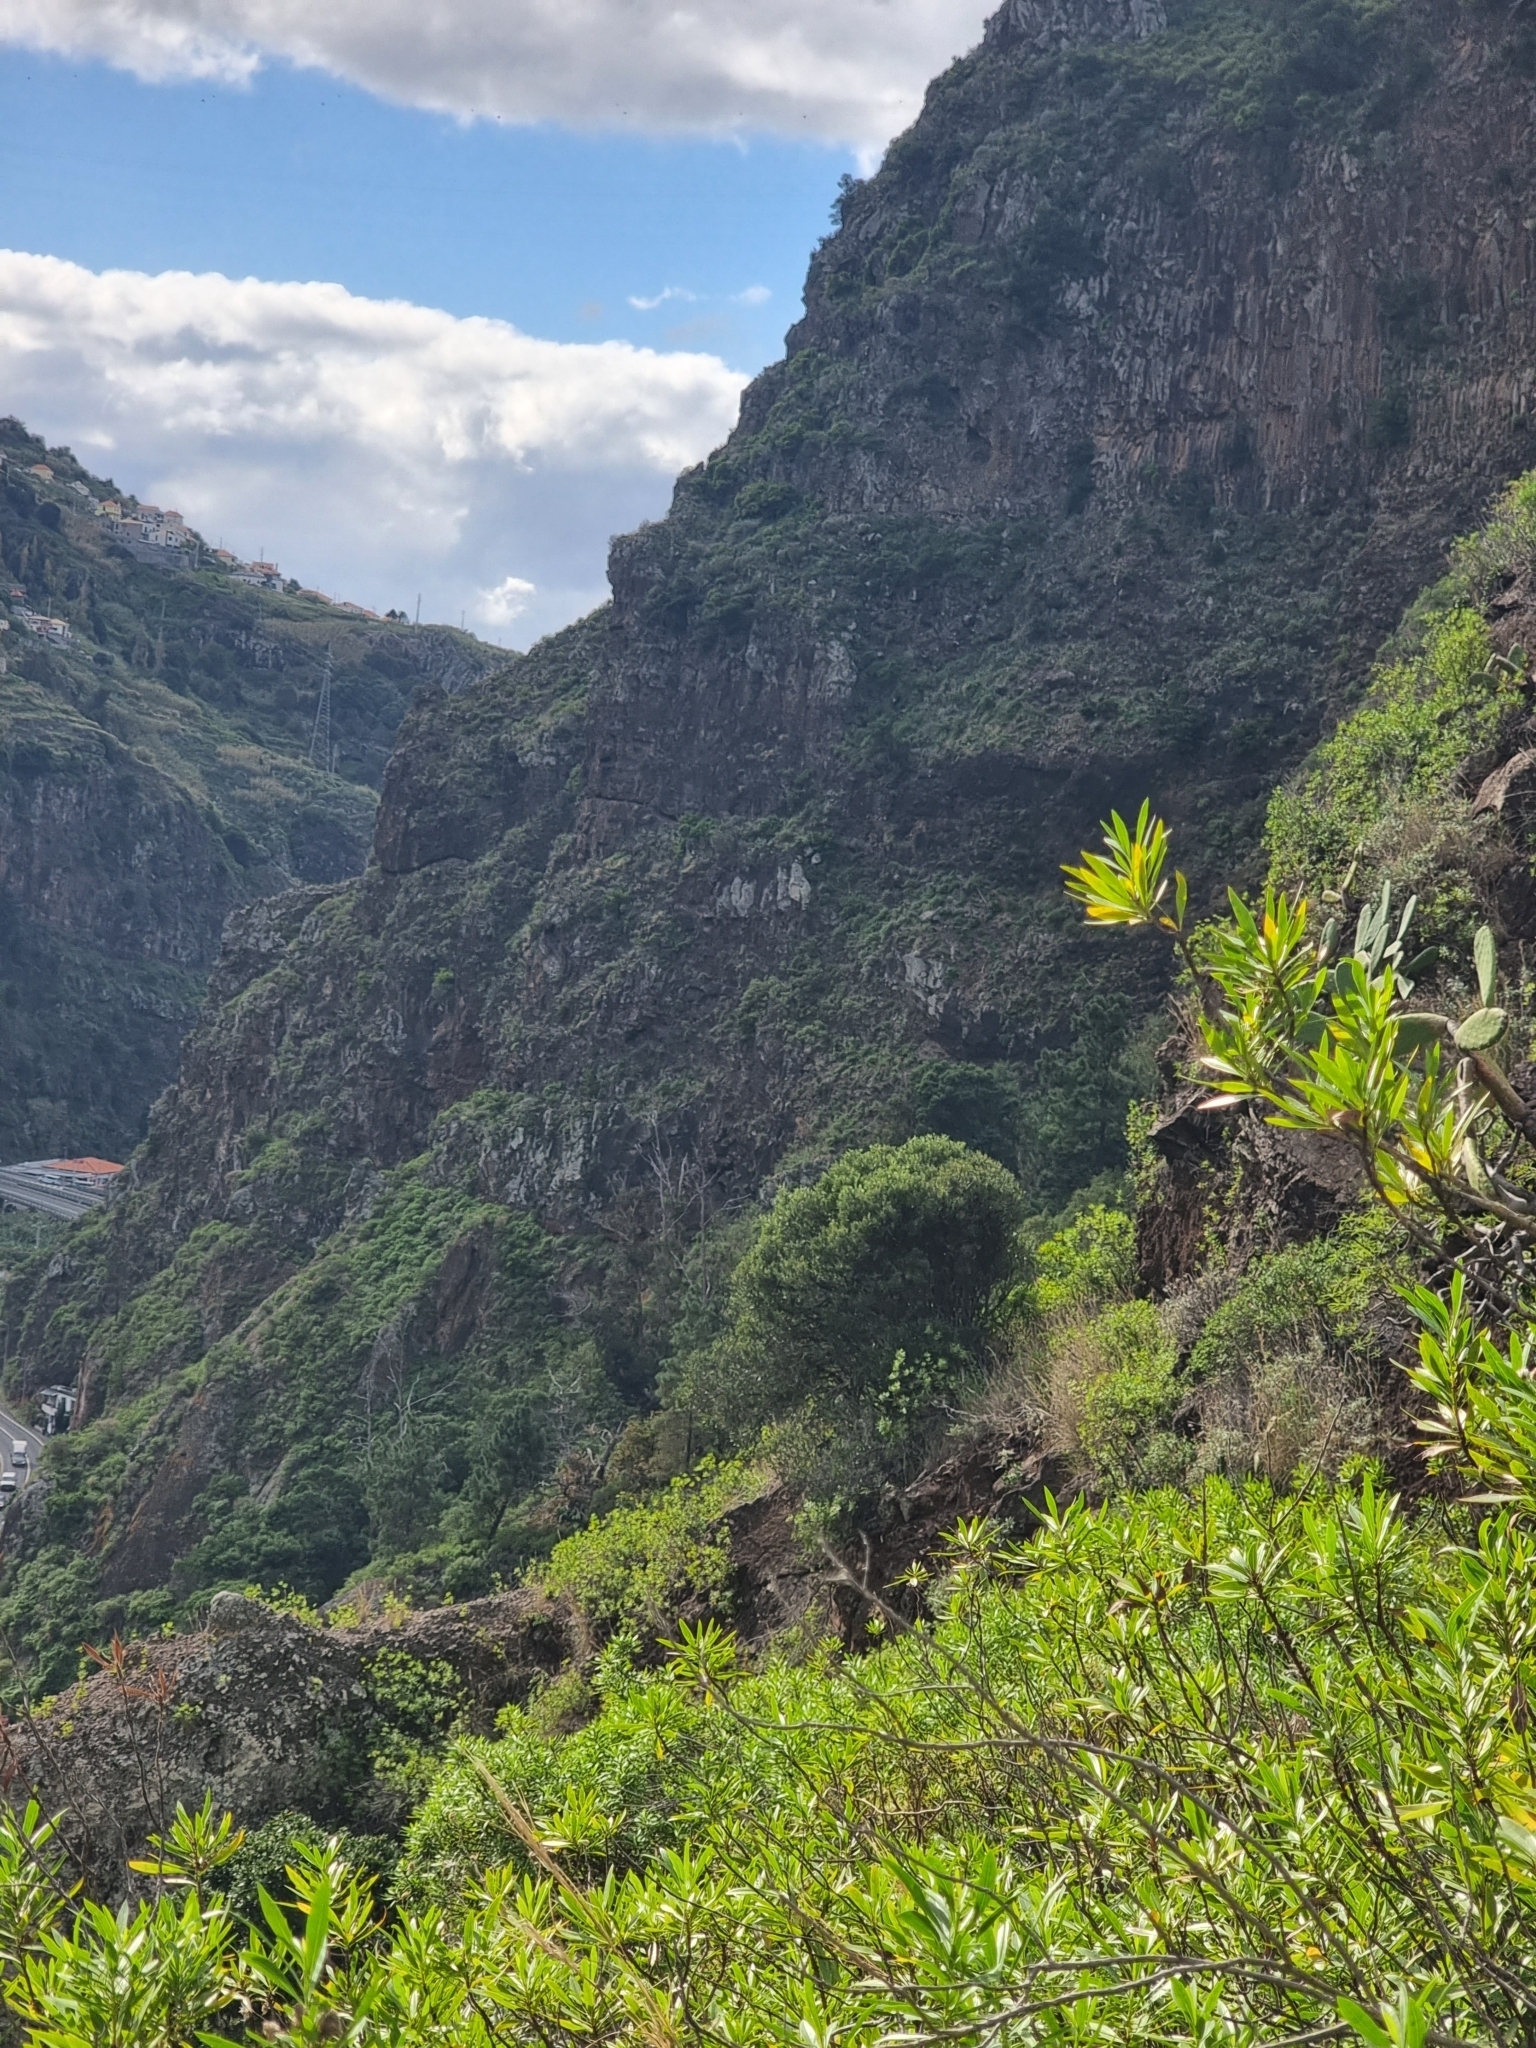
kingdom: Plantae
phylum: Tracheophyta
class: Magnoliopsida
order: Lamiales
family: Oleaceae
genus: Olea
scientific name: Olea europaea
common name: Olive
